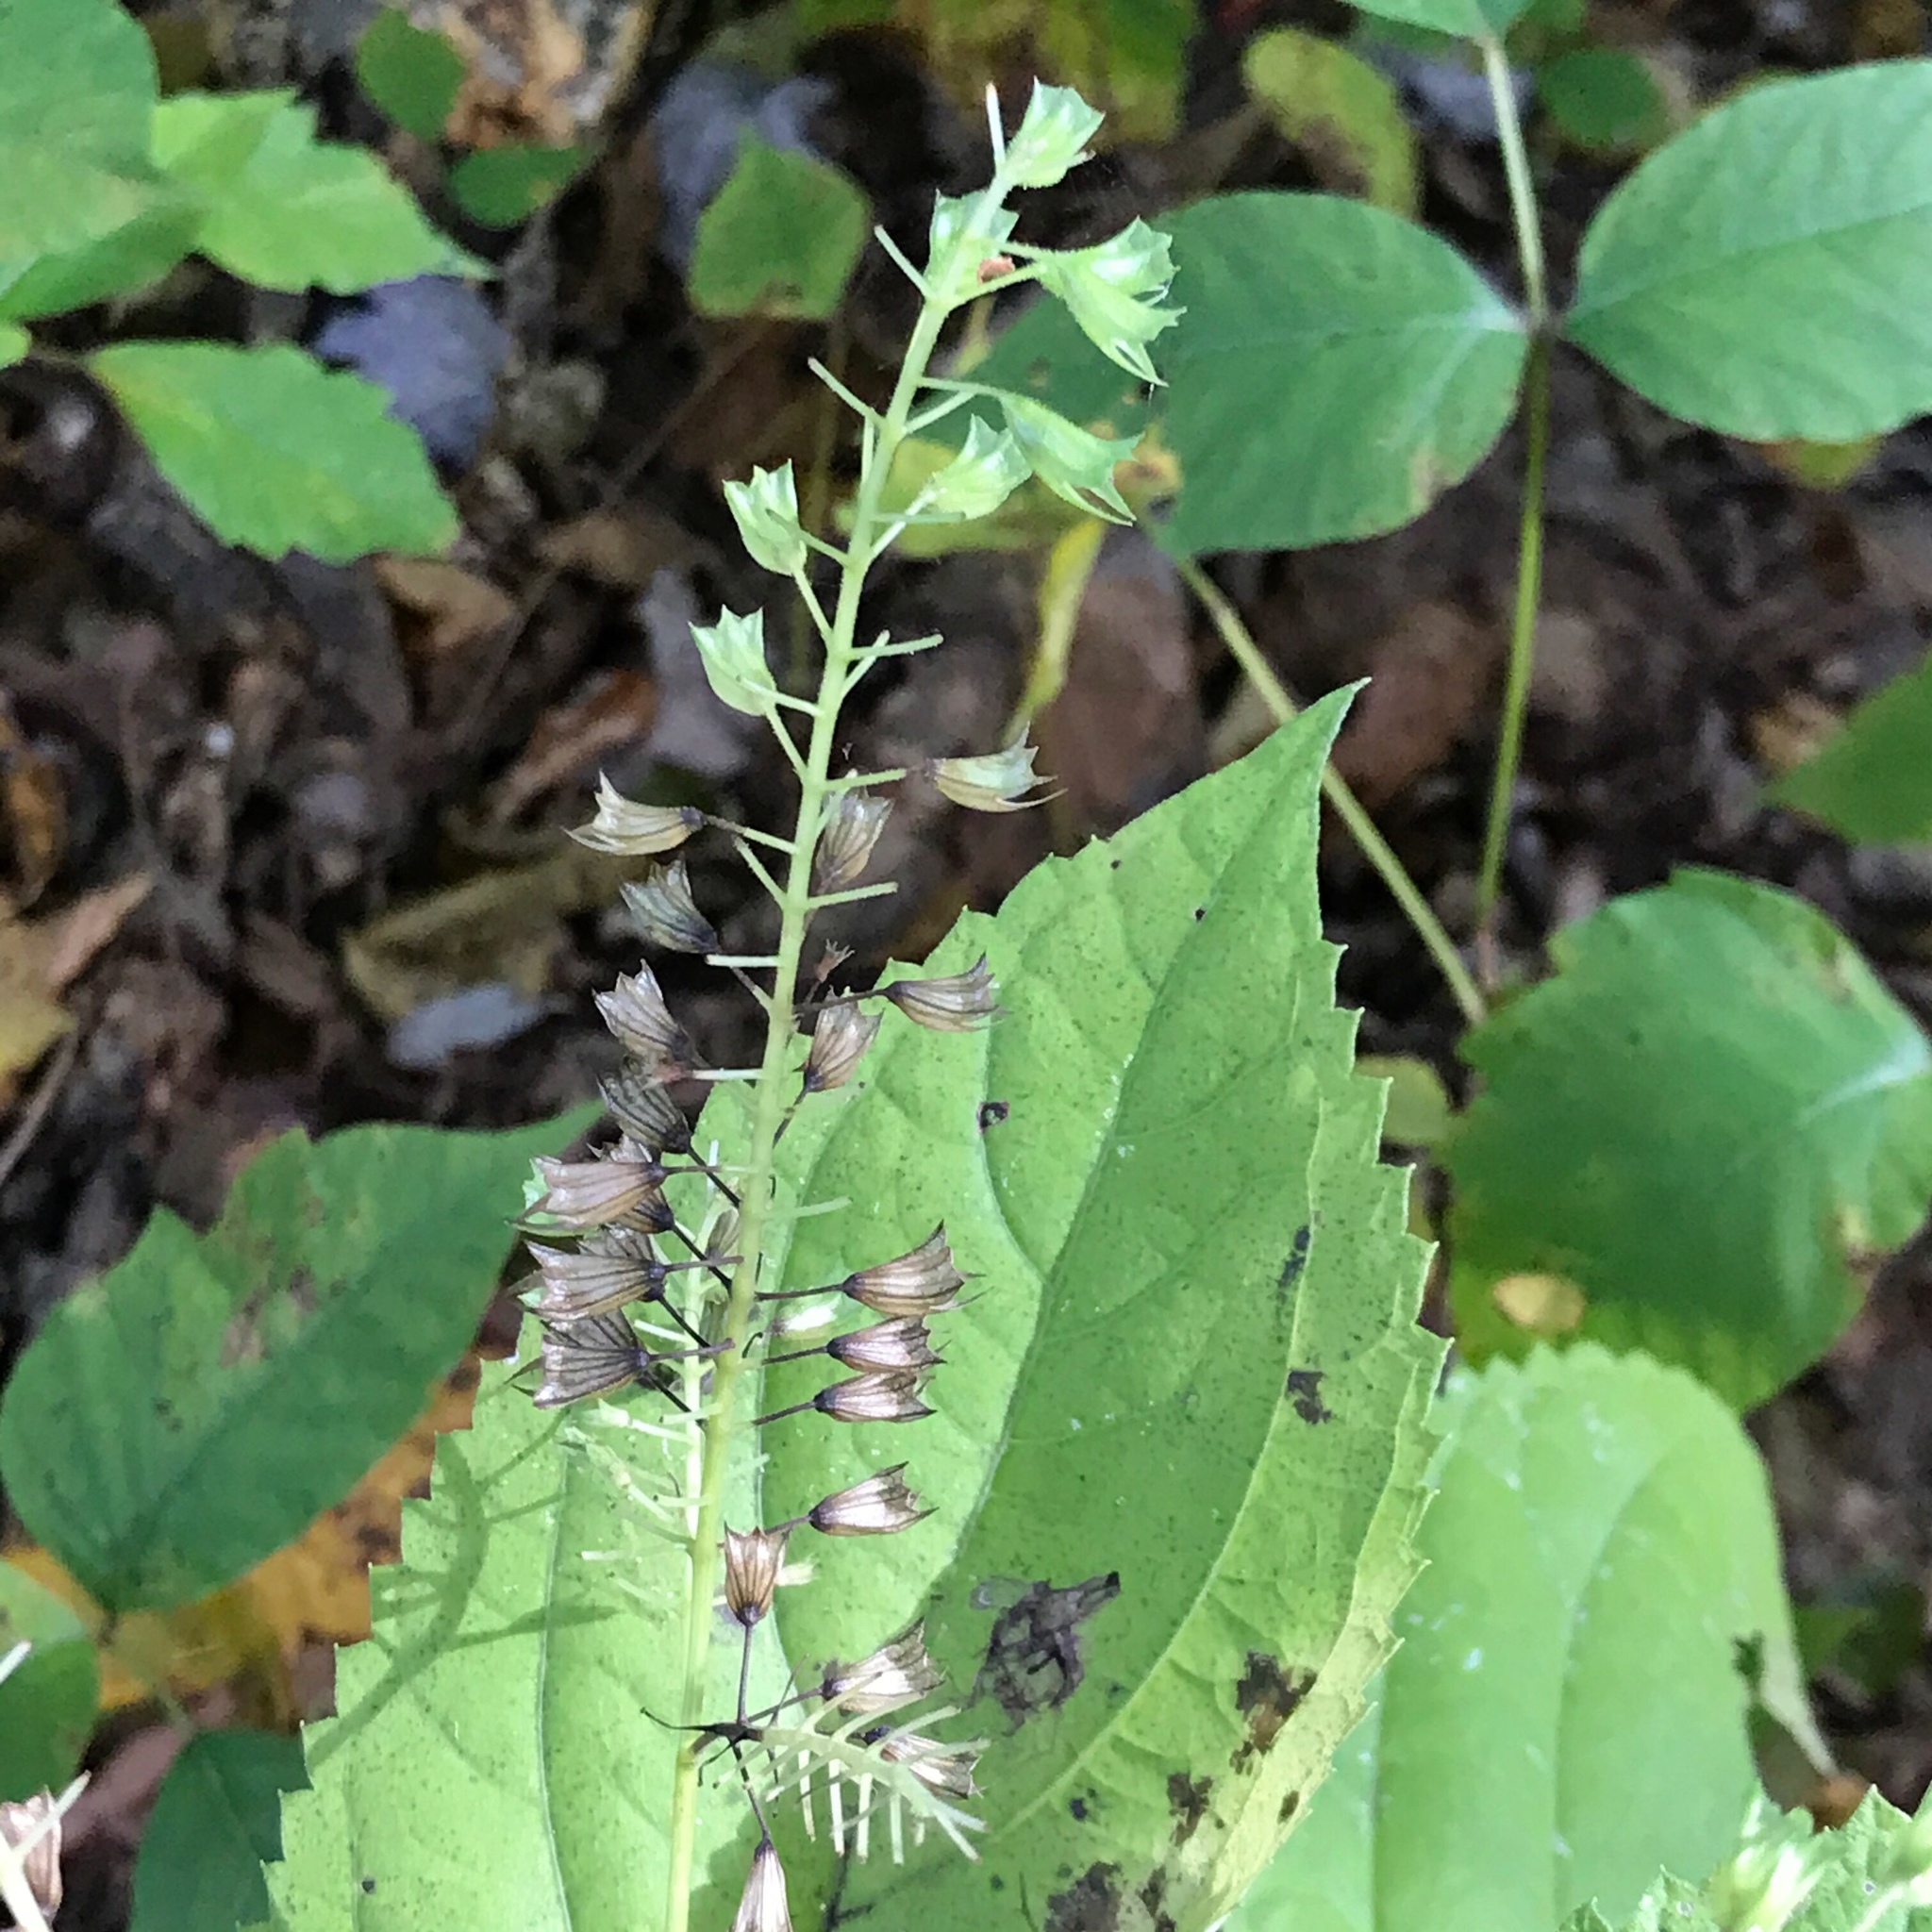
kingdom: Plantae
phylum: Tracheophyta
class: Magnoliopsida
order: Lamiales
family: Lamiaceae
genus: Collinsonia
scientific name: Collinsonia canadensis
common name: Northern horsebalm
